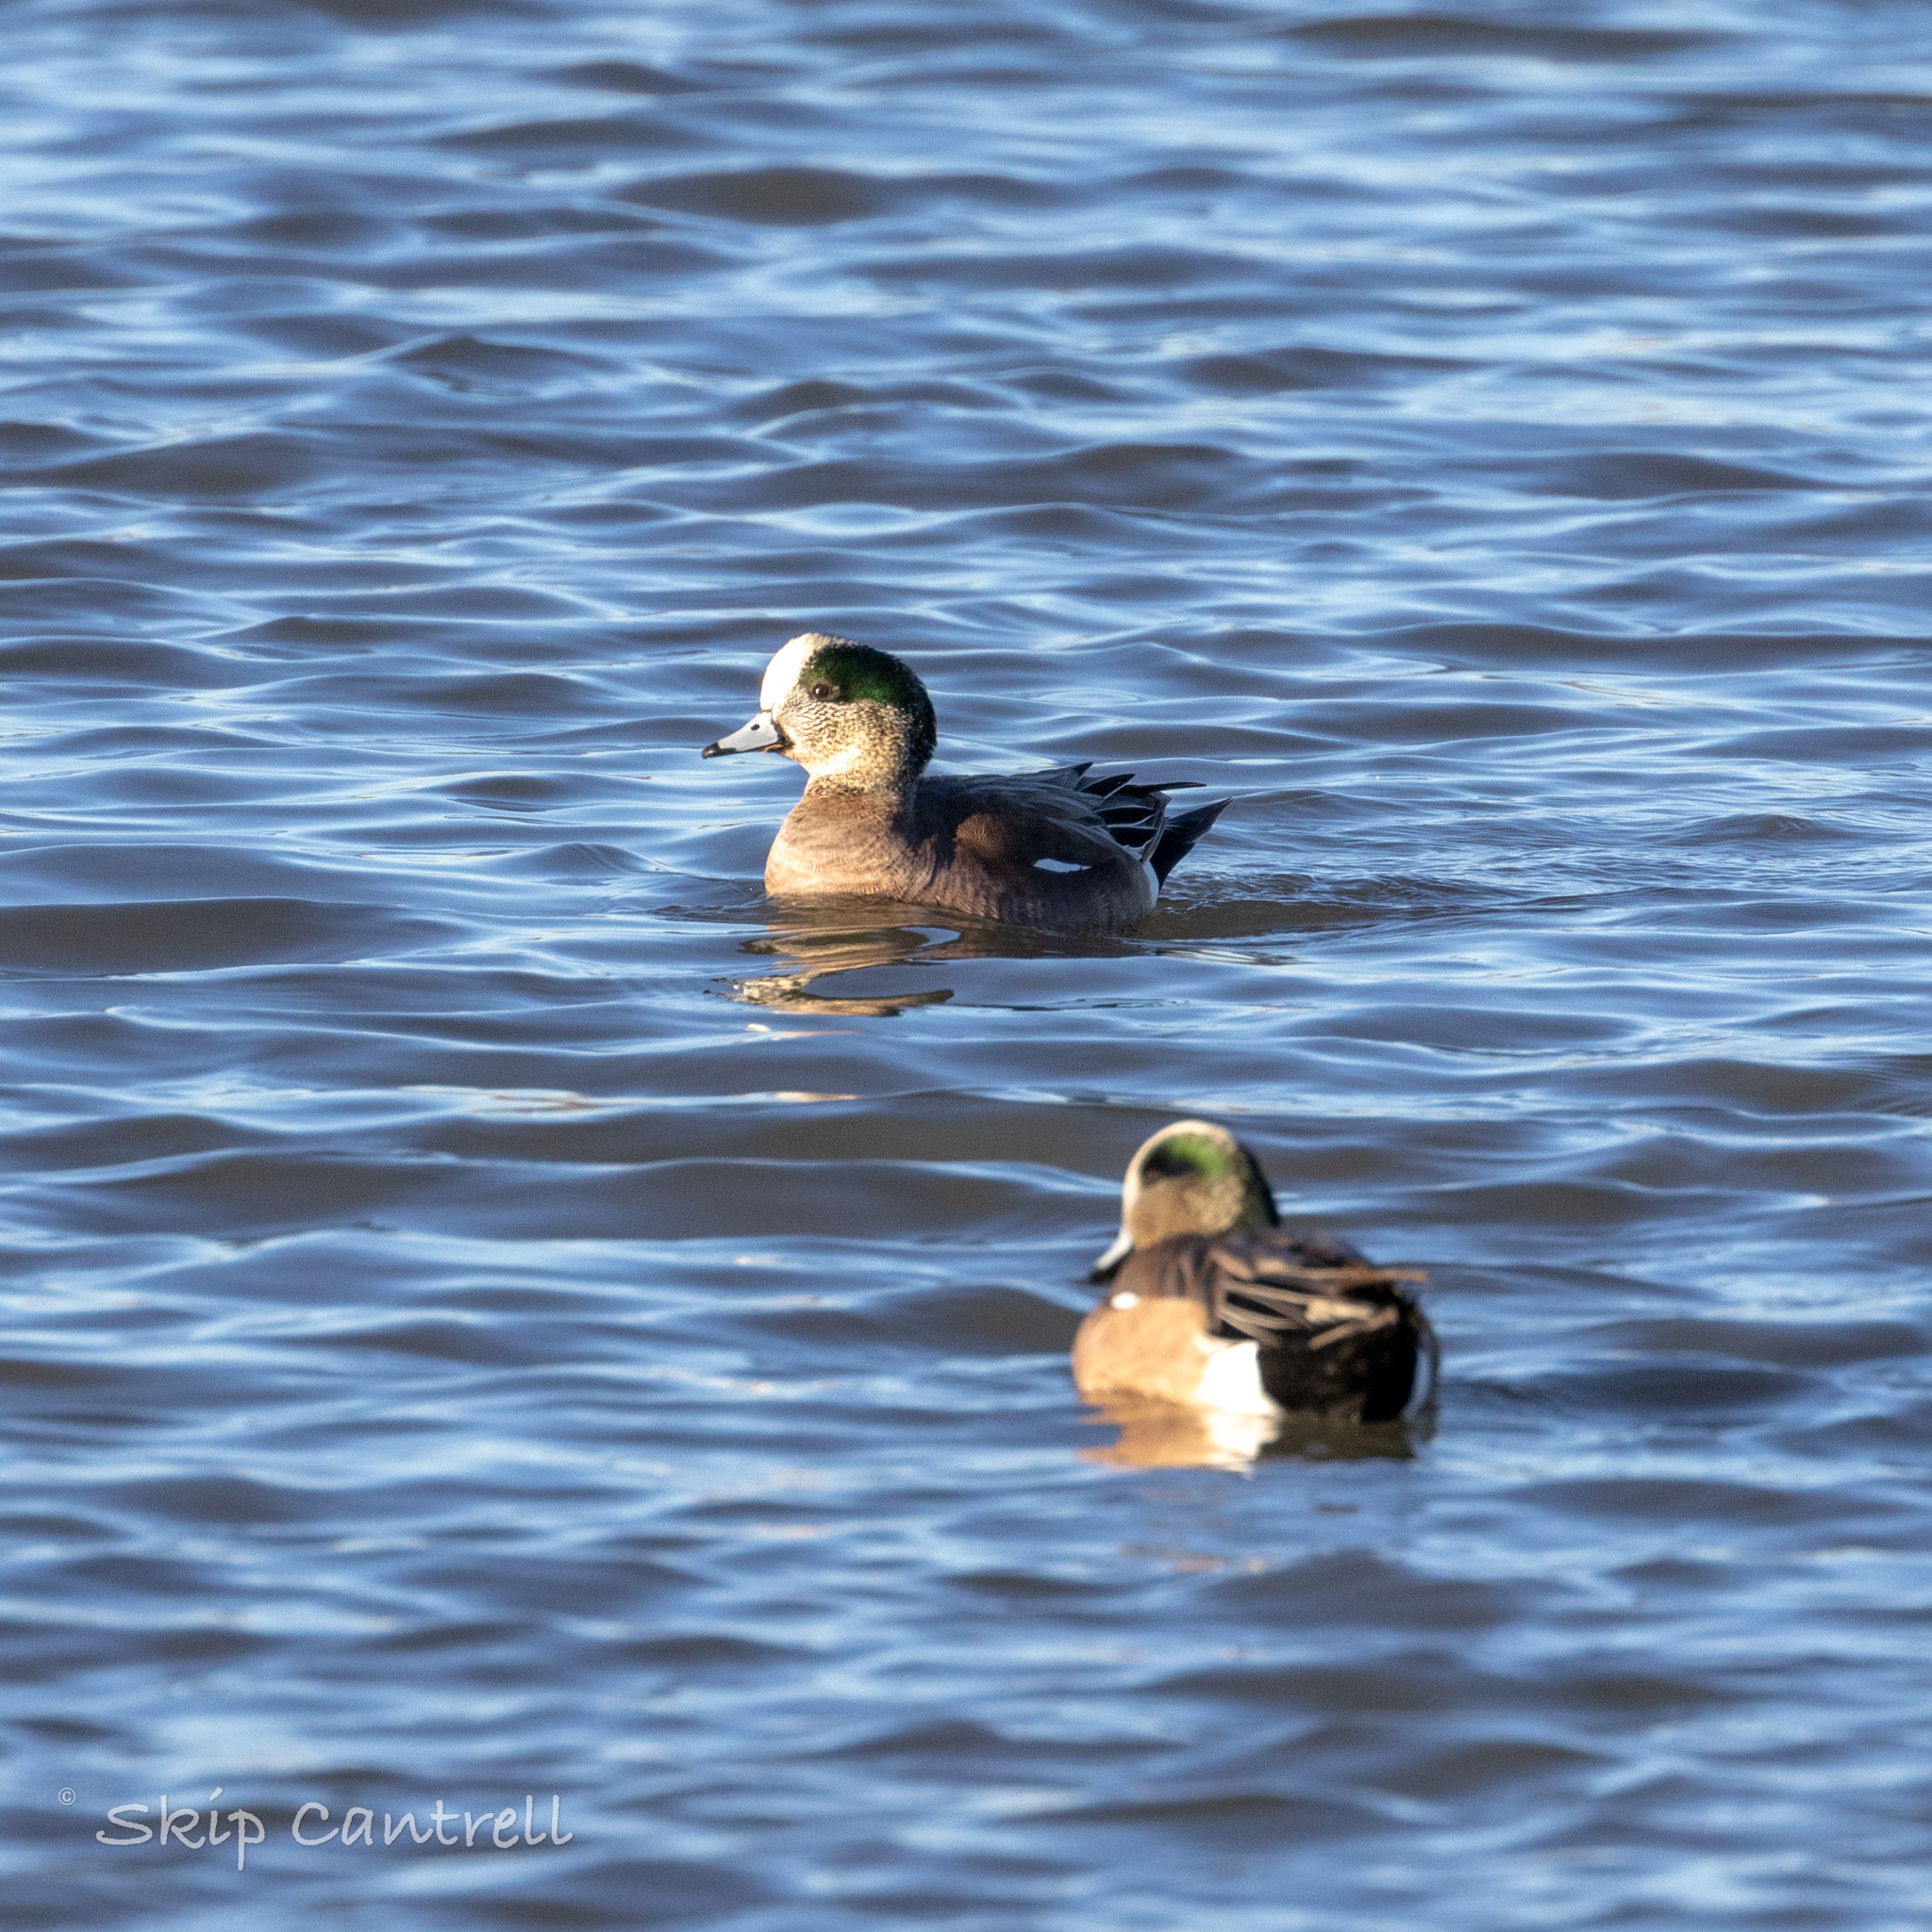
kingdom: Animalia
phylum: Chordata
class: Aves
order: Anseriformes
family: Anatidae
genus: Mareca
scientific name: Mareca americana
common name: American wigeon
